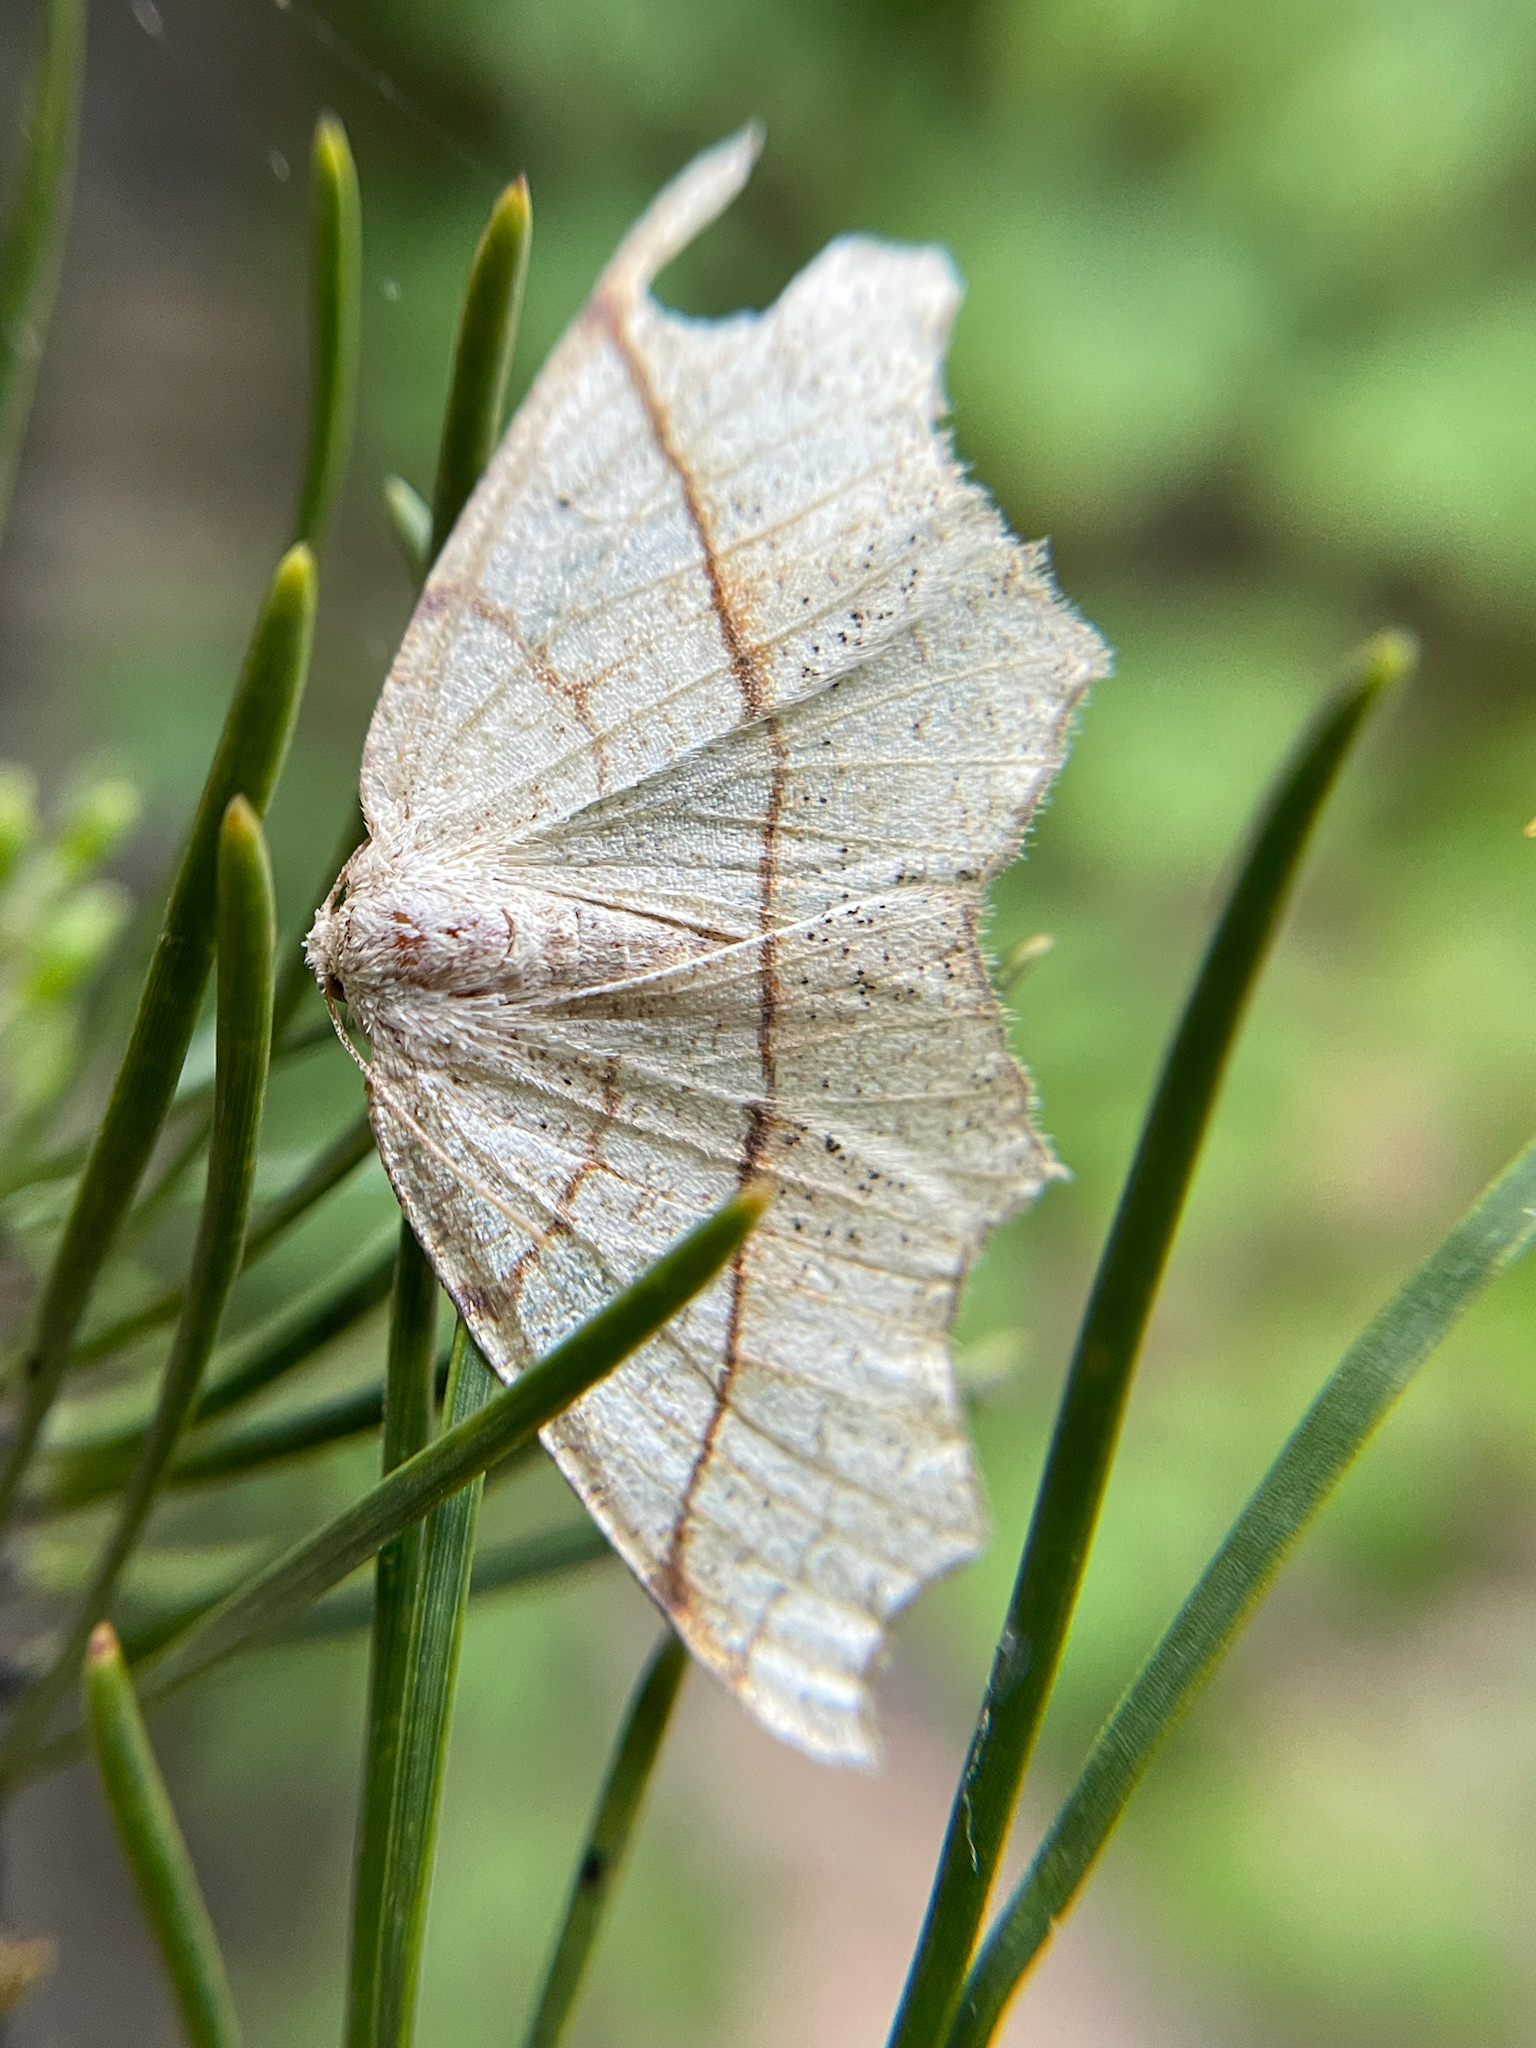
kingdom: Animalia
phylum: Arthropoda
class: Insecta
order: Lepidoptera
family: Geometridae
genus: Besma
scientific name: Besma quercivoraria
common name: Oak besma
